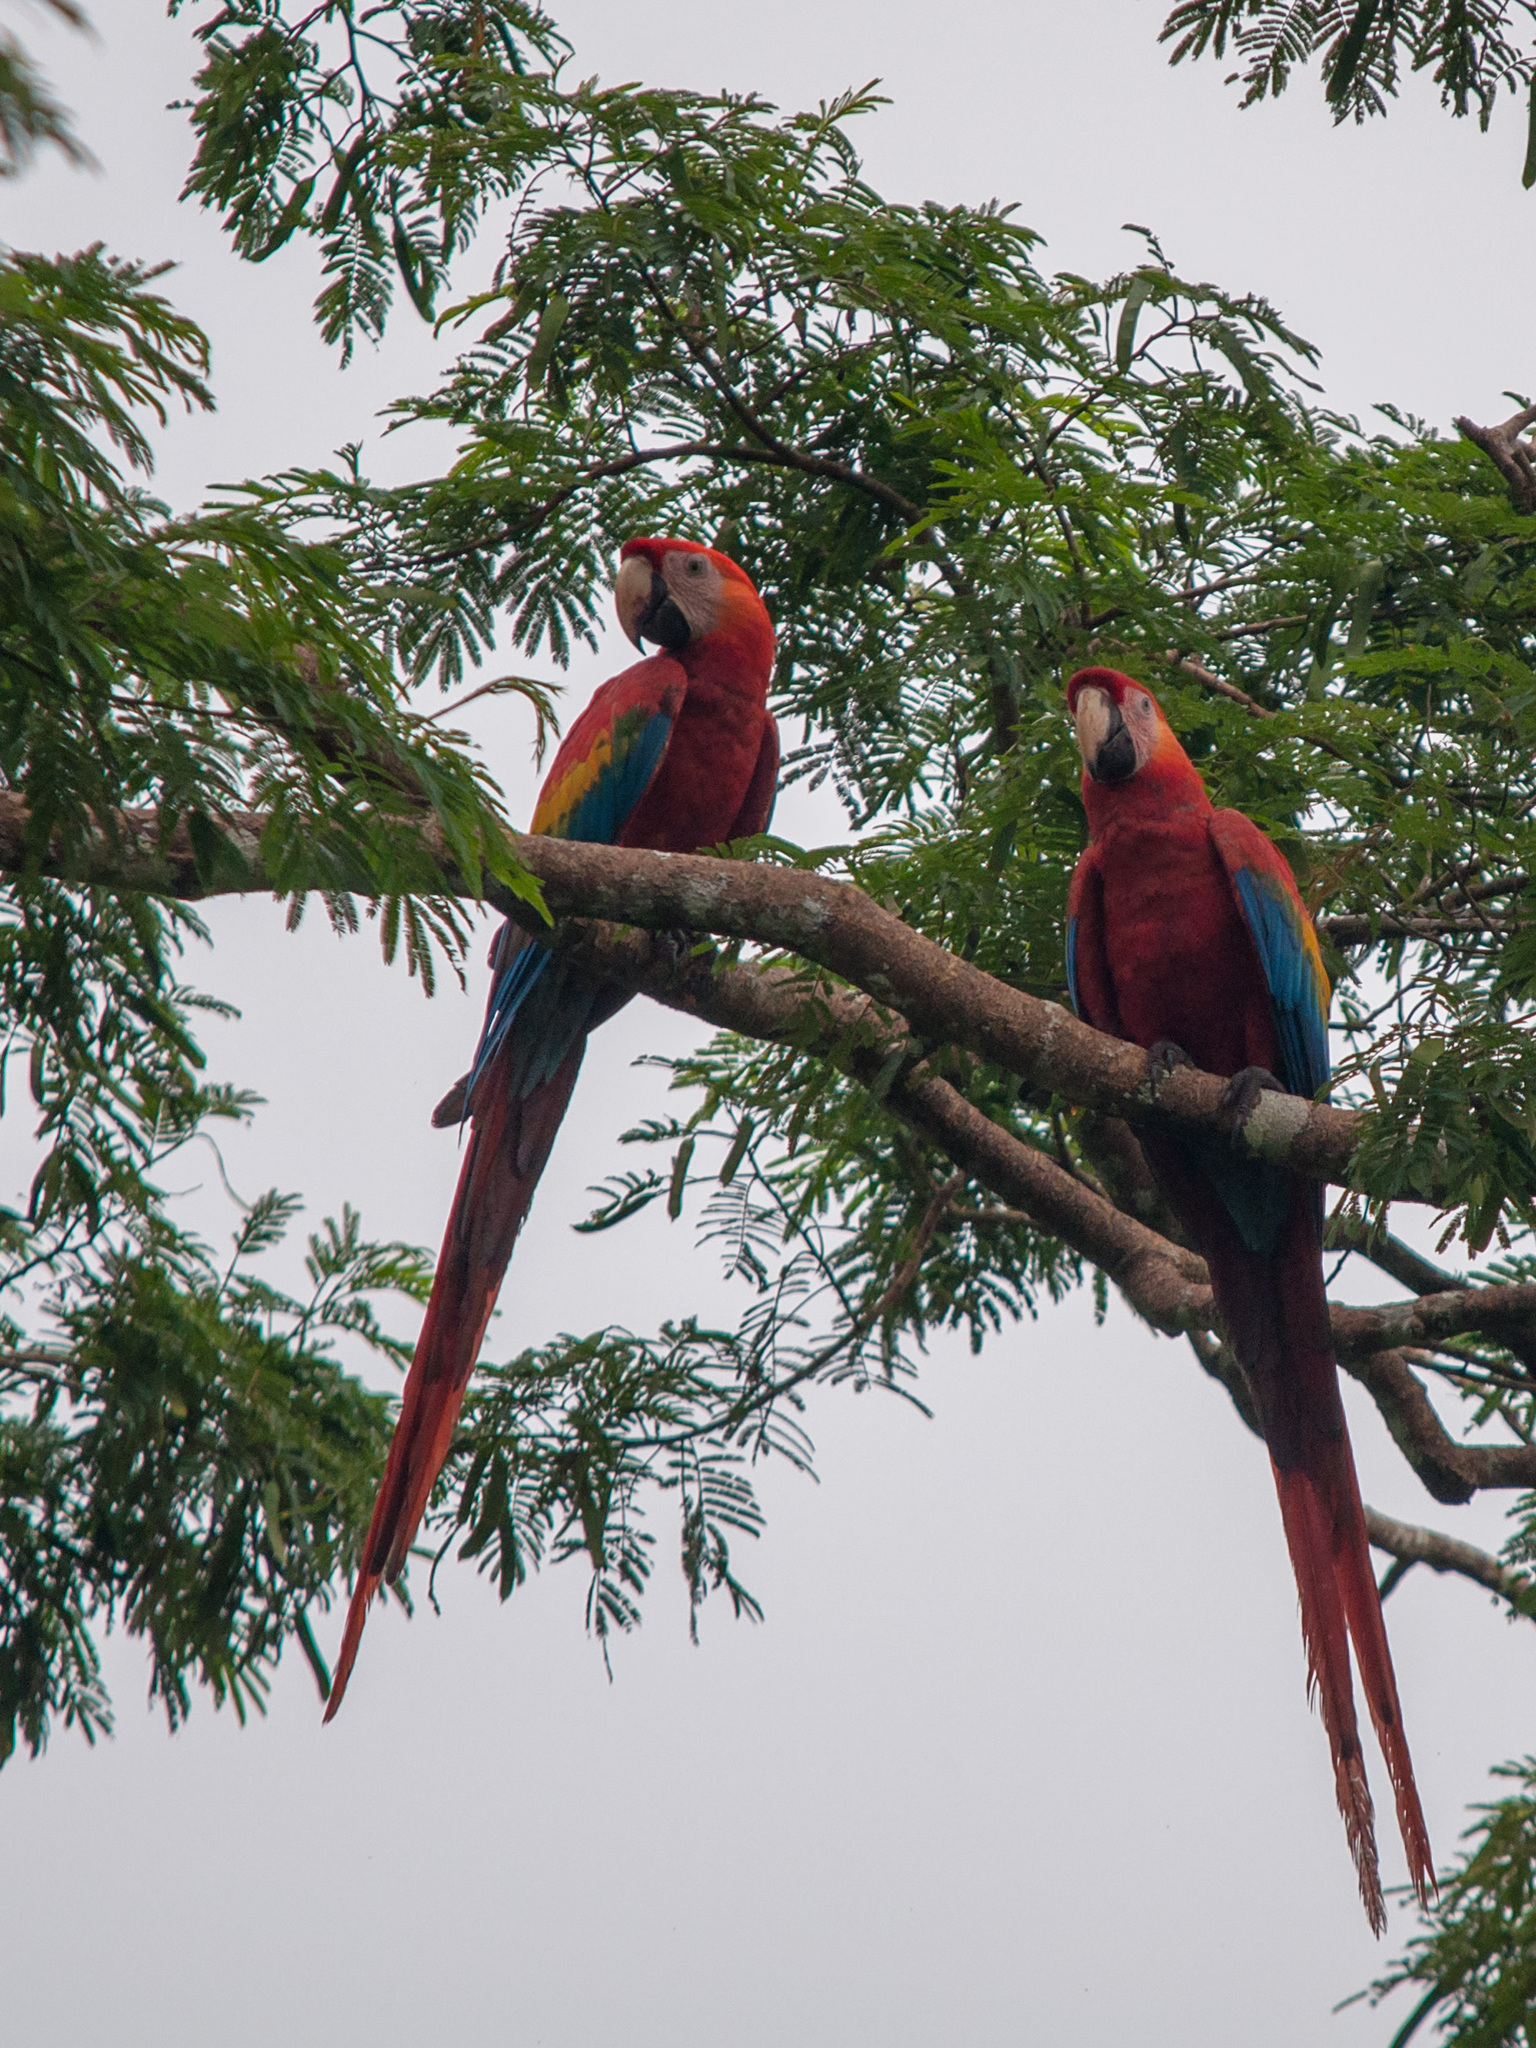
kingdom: Animalia
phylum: Chordata
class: Aves
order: Psittaciformes
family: Psittacidae
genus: Ara
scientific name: Ara macao
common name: Scarlet macaw
